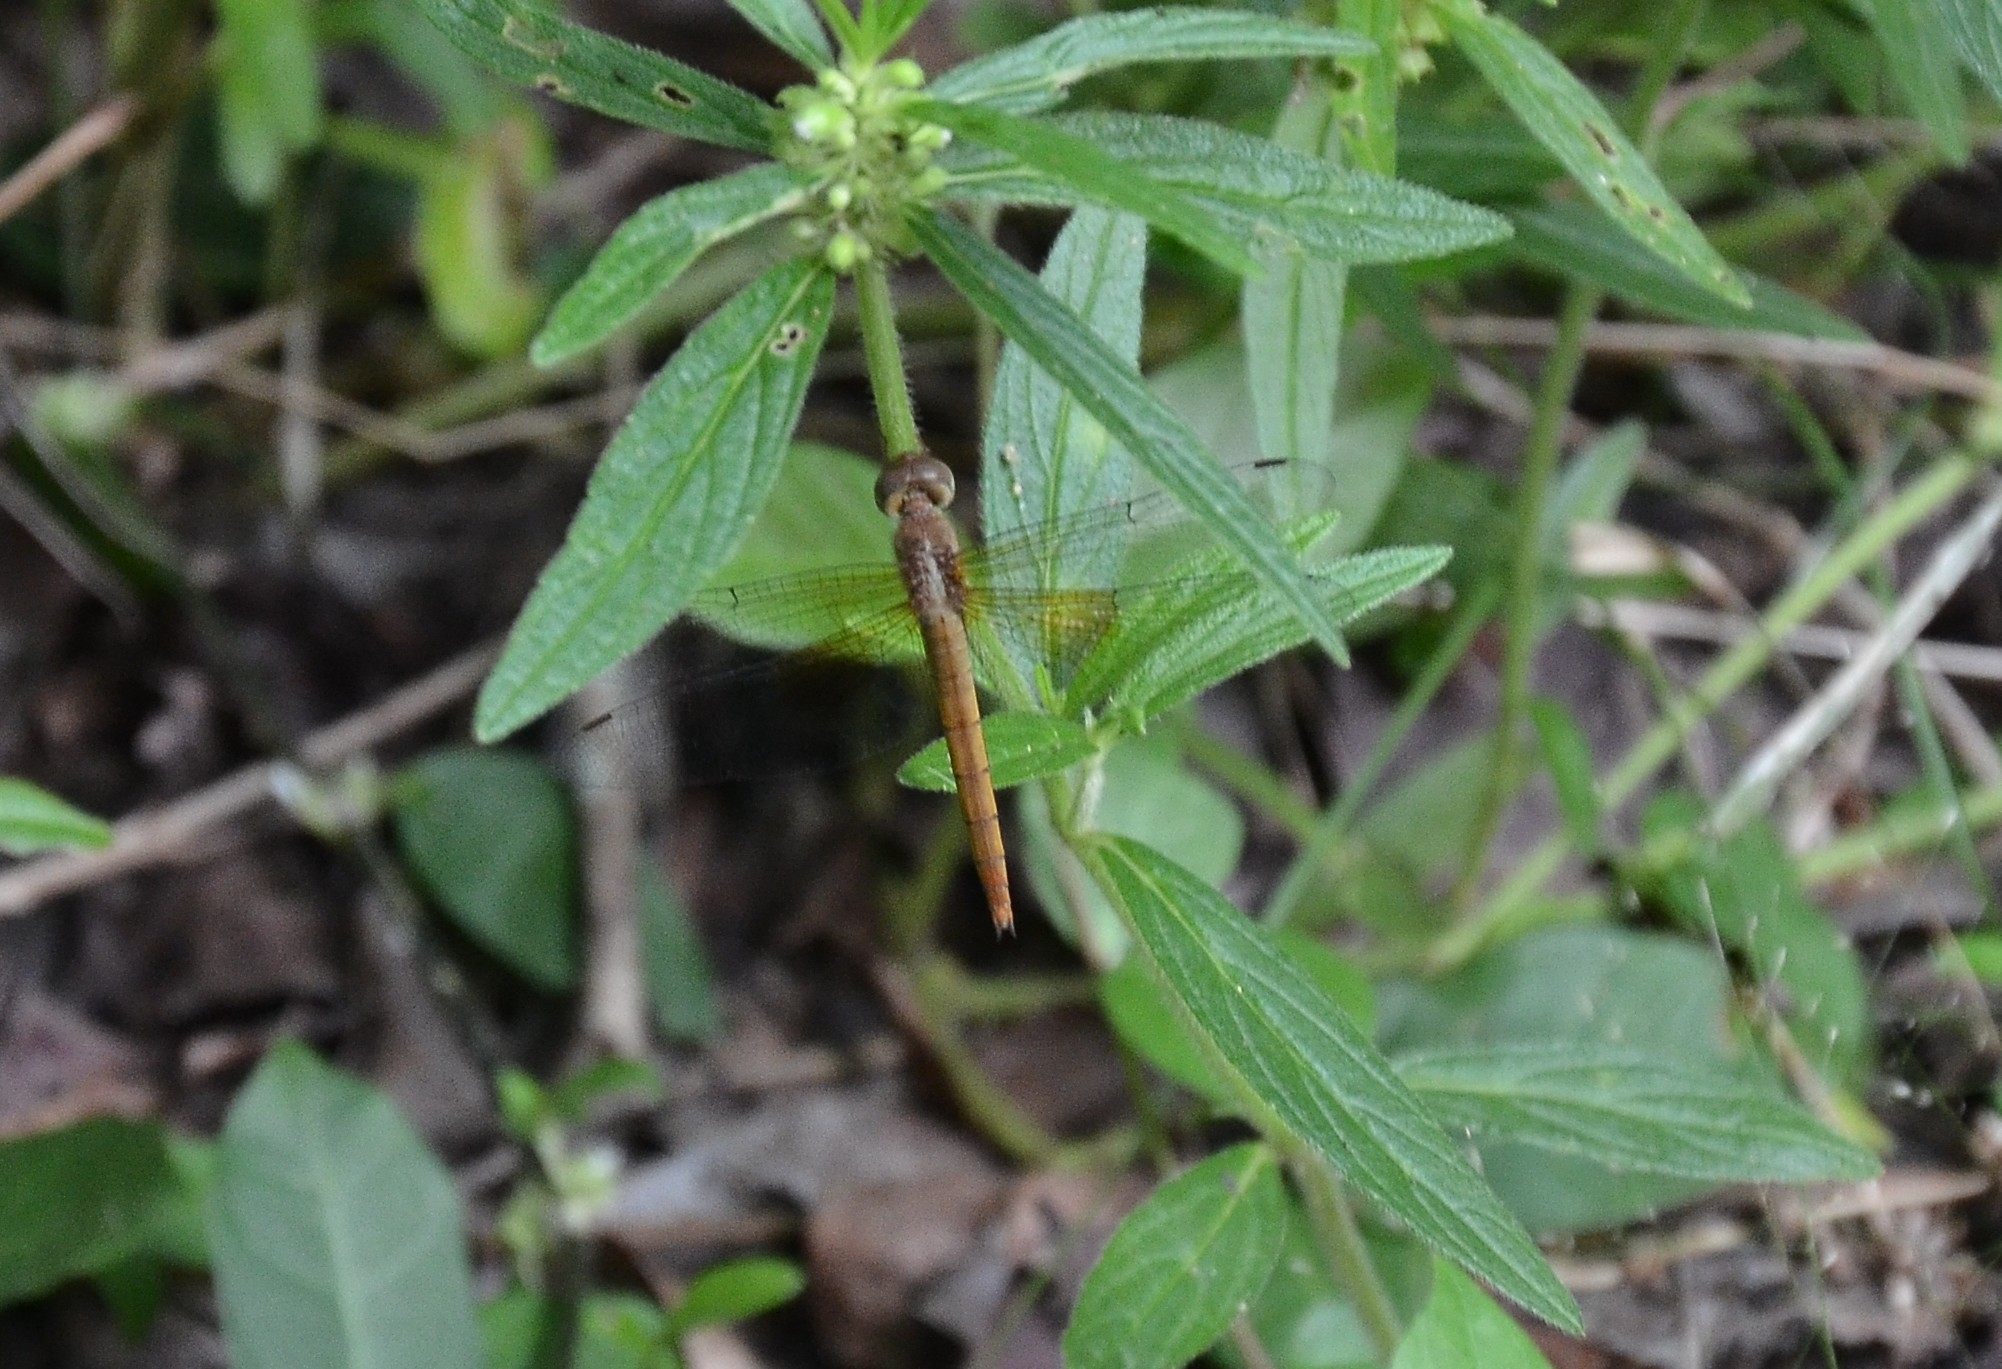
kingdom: Animalia
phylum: Arthropoda
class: Insecta
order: Odonata
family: Libellulidae
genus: Tholymis
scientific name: Tholymis tillarga
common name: Coral-tailed cloud wing
